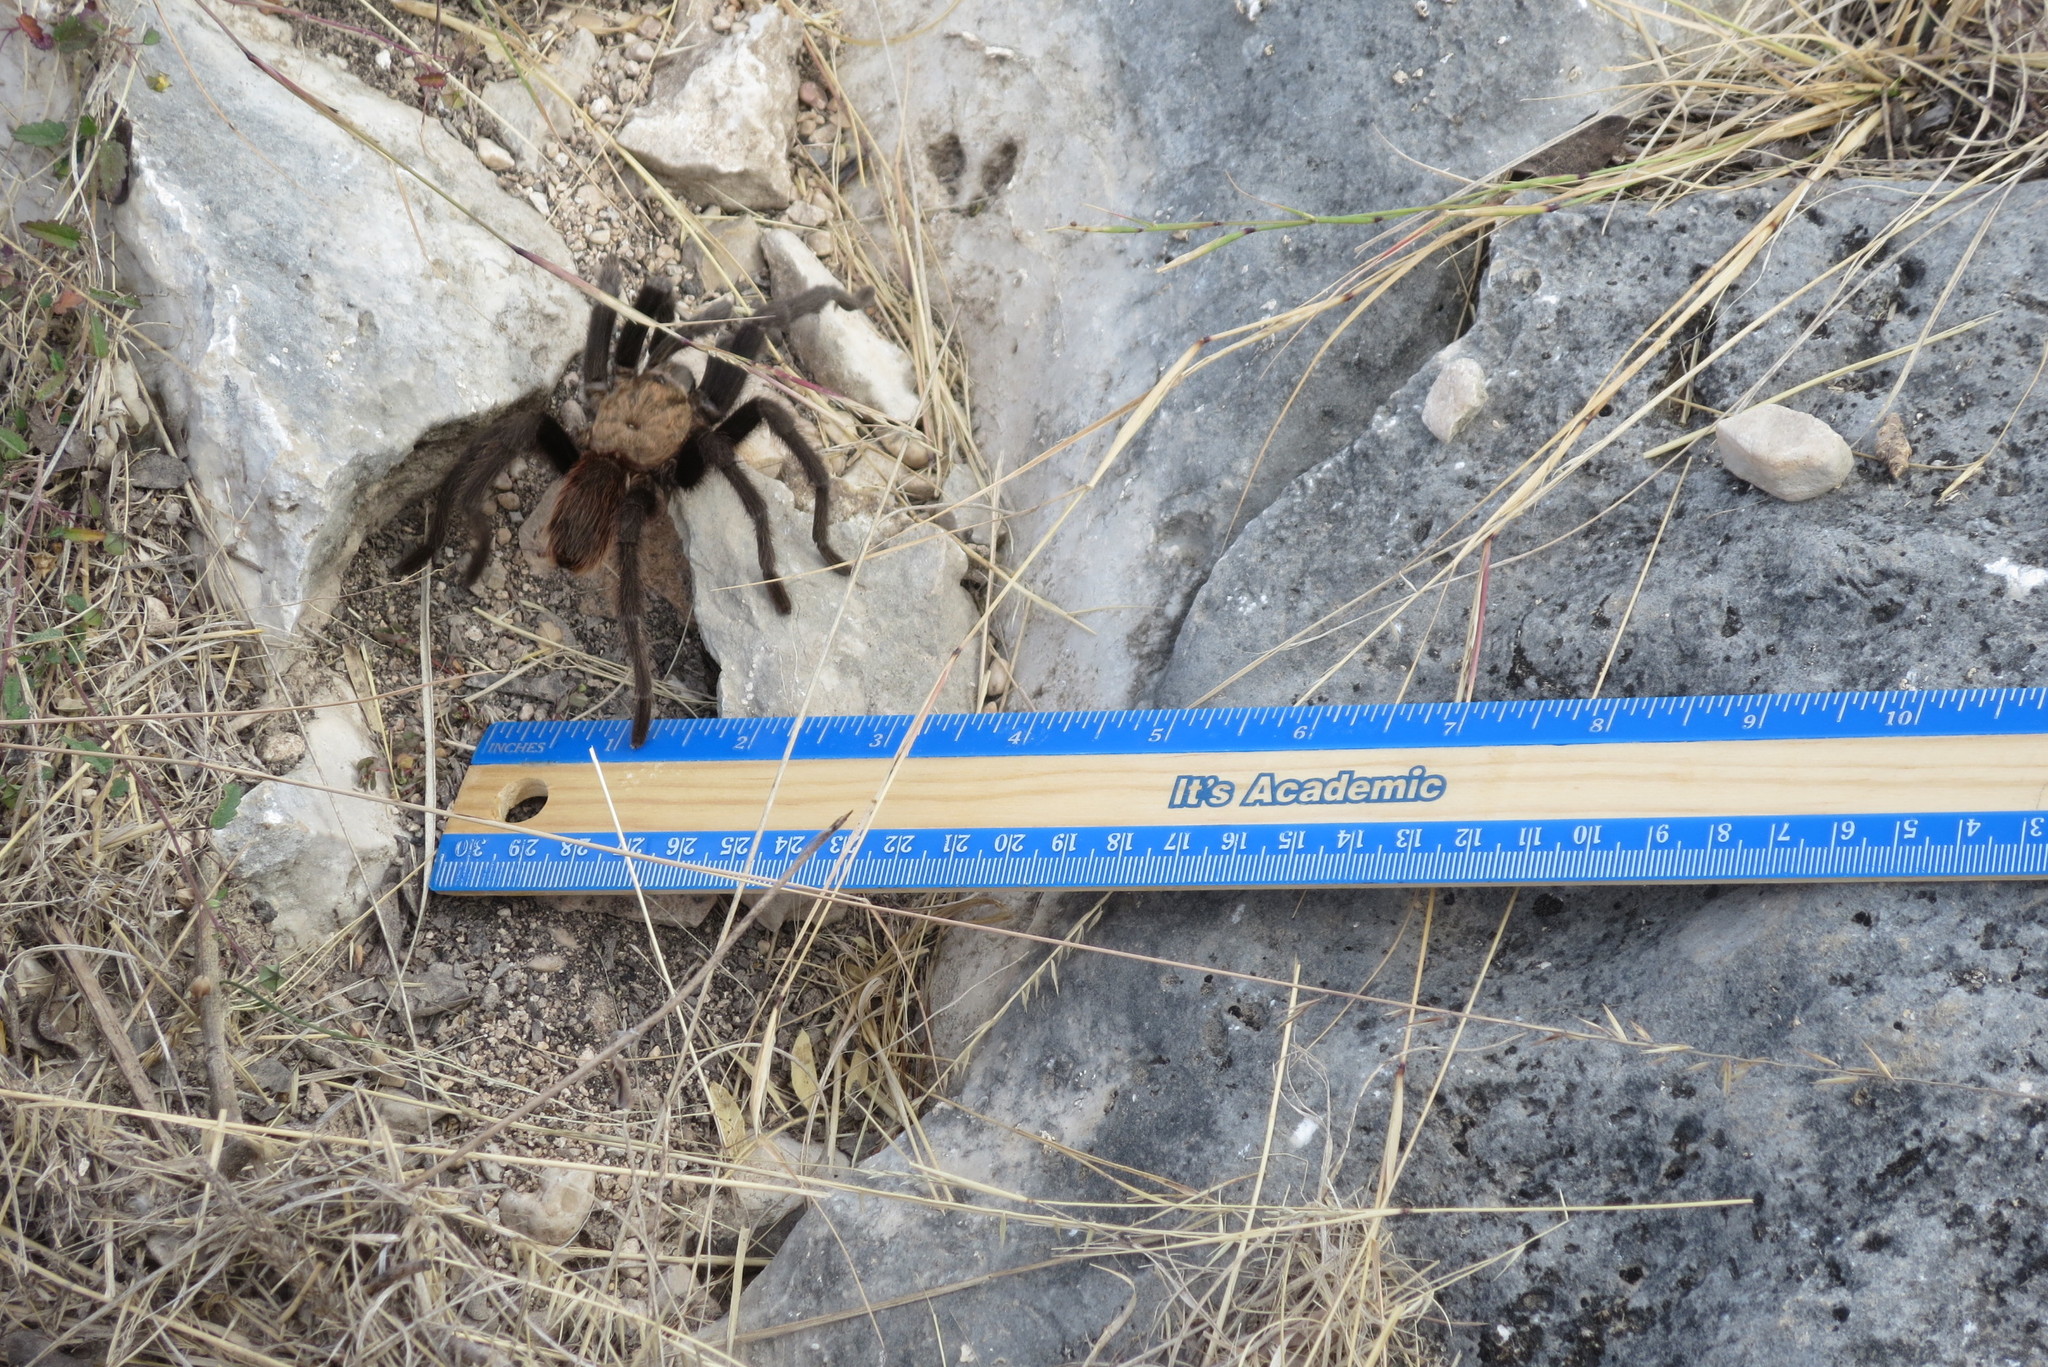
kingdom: Animalia
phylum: Arthropoda
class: Arachnida
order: Araneae
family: Theraphosidae
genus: Aphonopelma
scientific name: Aphonopelma hentzi
